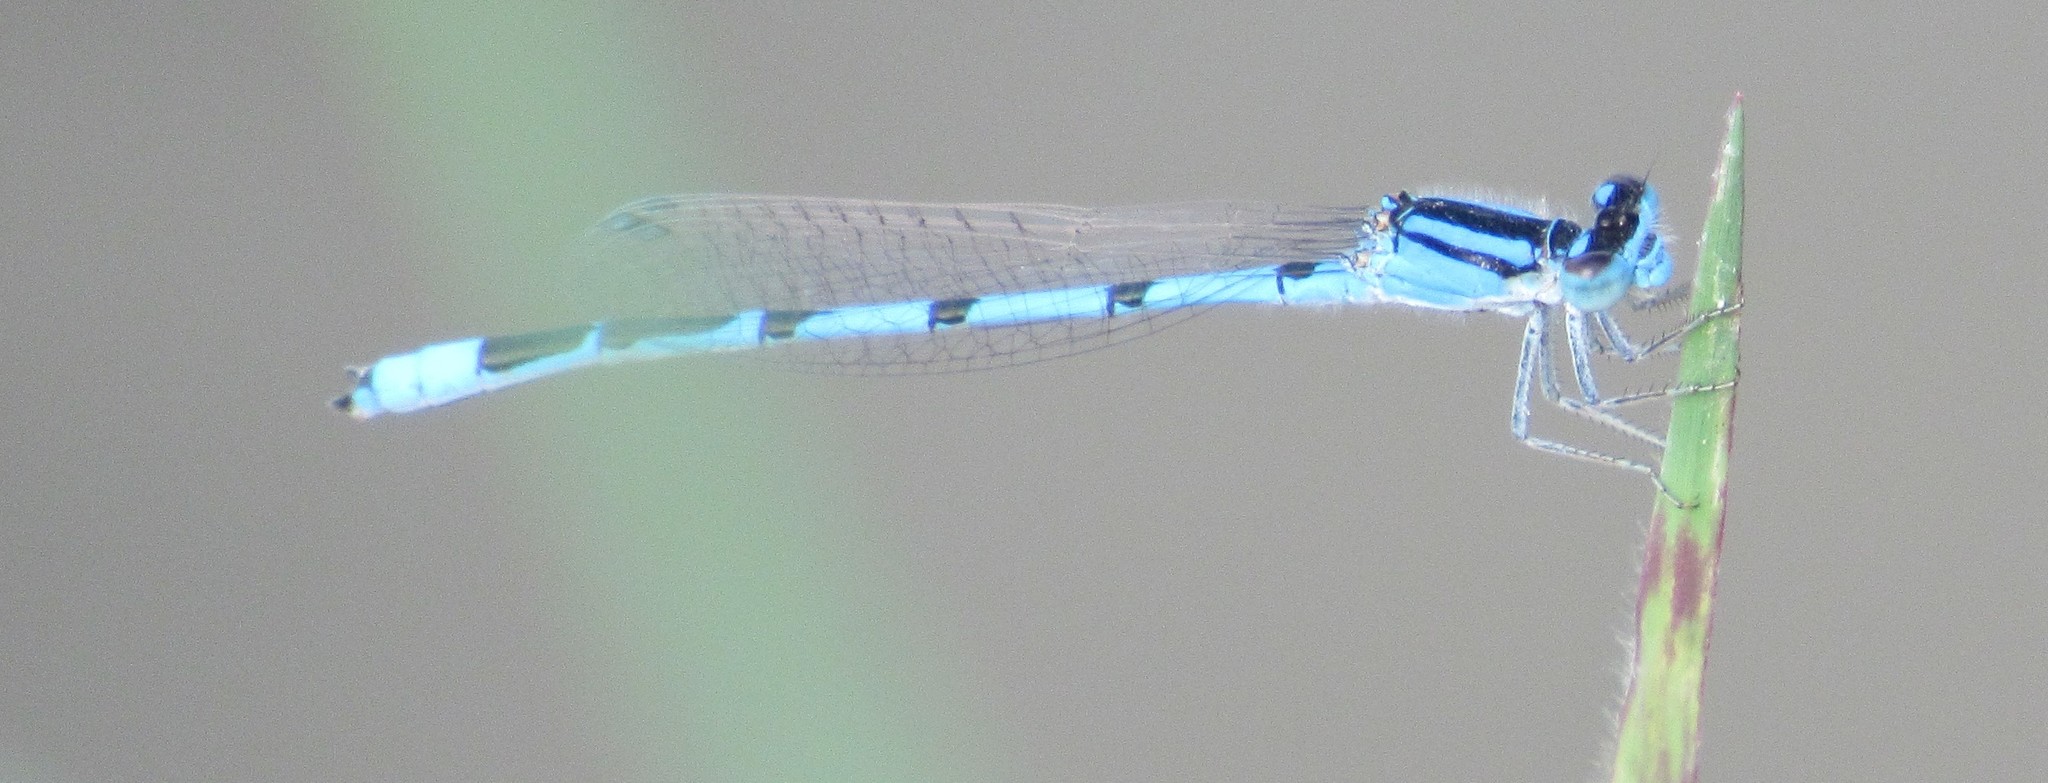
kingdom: Animalia
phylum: Arthropoda
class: Insecta
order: Odonata
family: Coenagrionidae
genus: Enallagma
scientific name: Enallagma civile
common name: Damselfly
